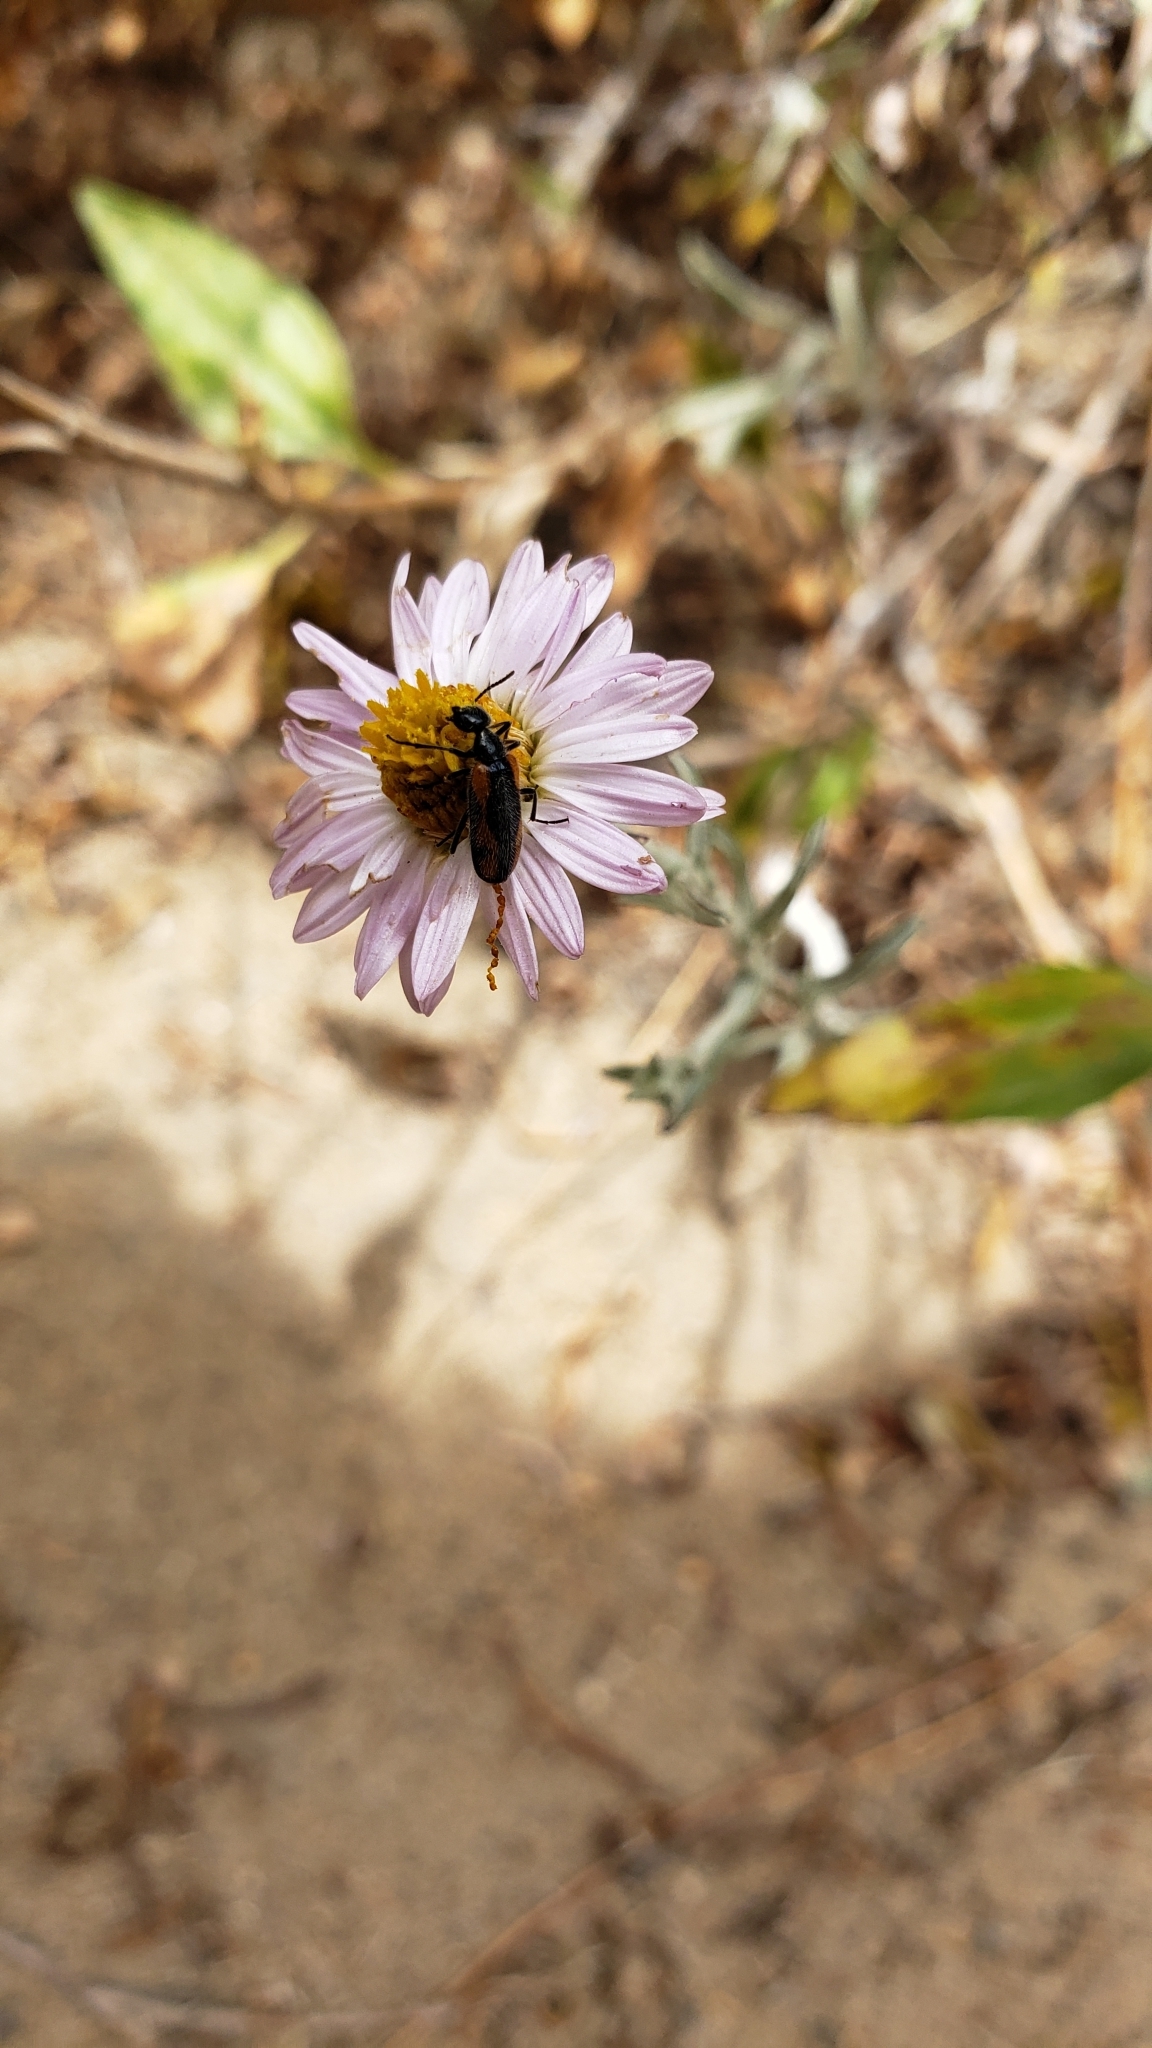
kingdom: Animalia
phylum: Arthropoda
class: Insecta
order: Coleoptera
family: Meloidae
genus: Eupompha
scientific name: Eupompha elegans
